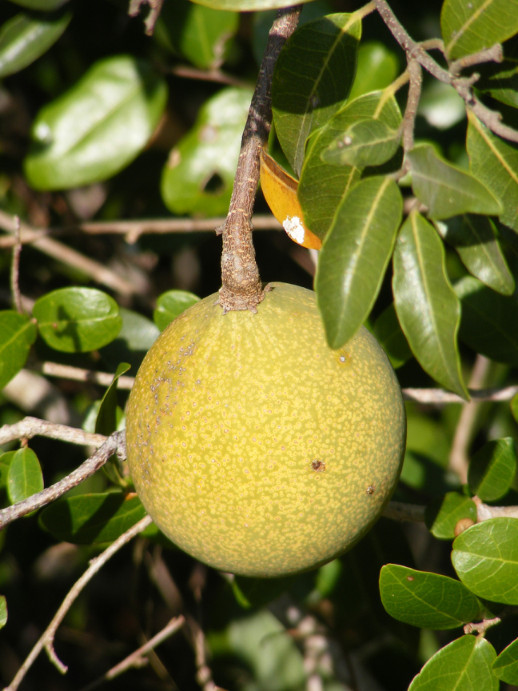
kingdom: Plantae
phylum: Tracheophyta
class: Magnoliopsida
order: Gentianales
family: Apocynaceae
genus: Landolphia
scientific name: Landolphia kirkii
